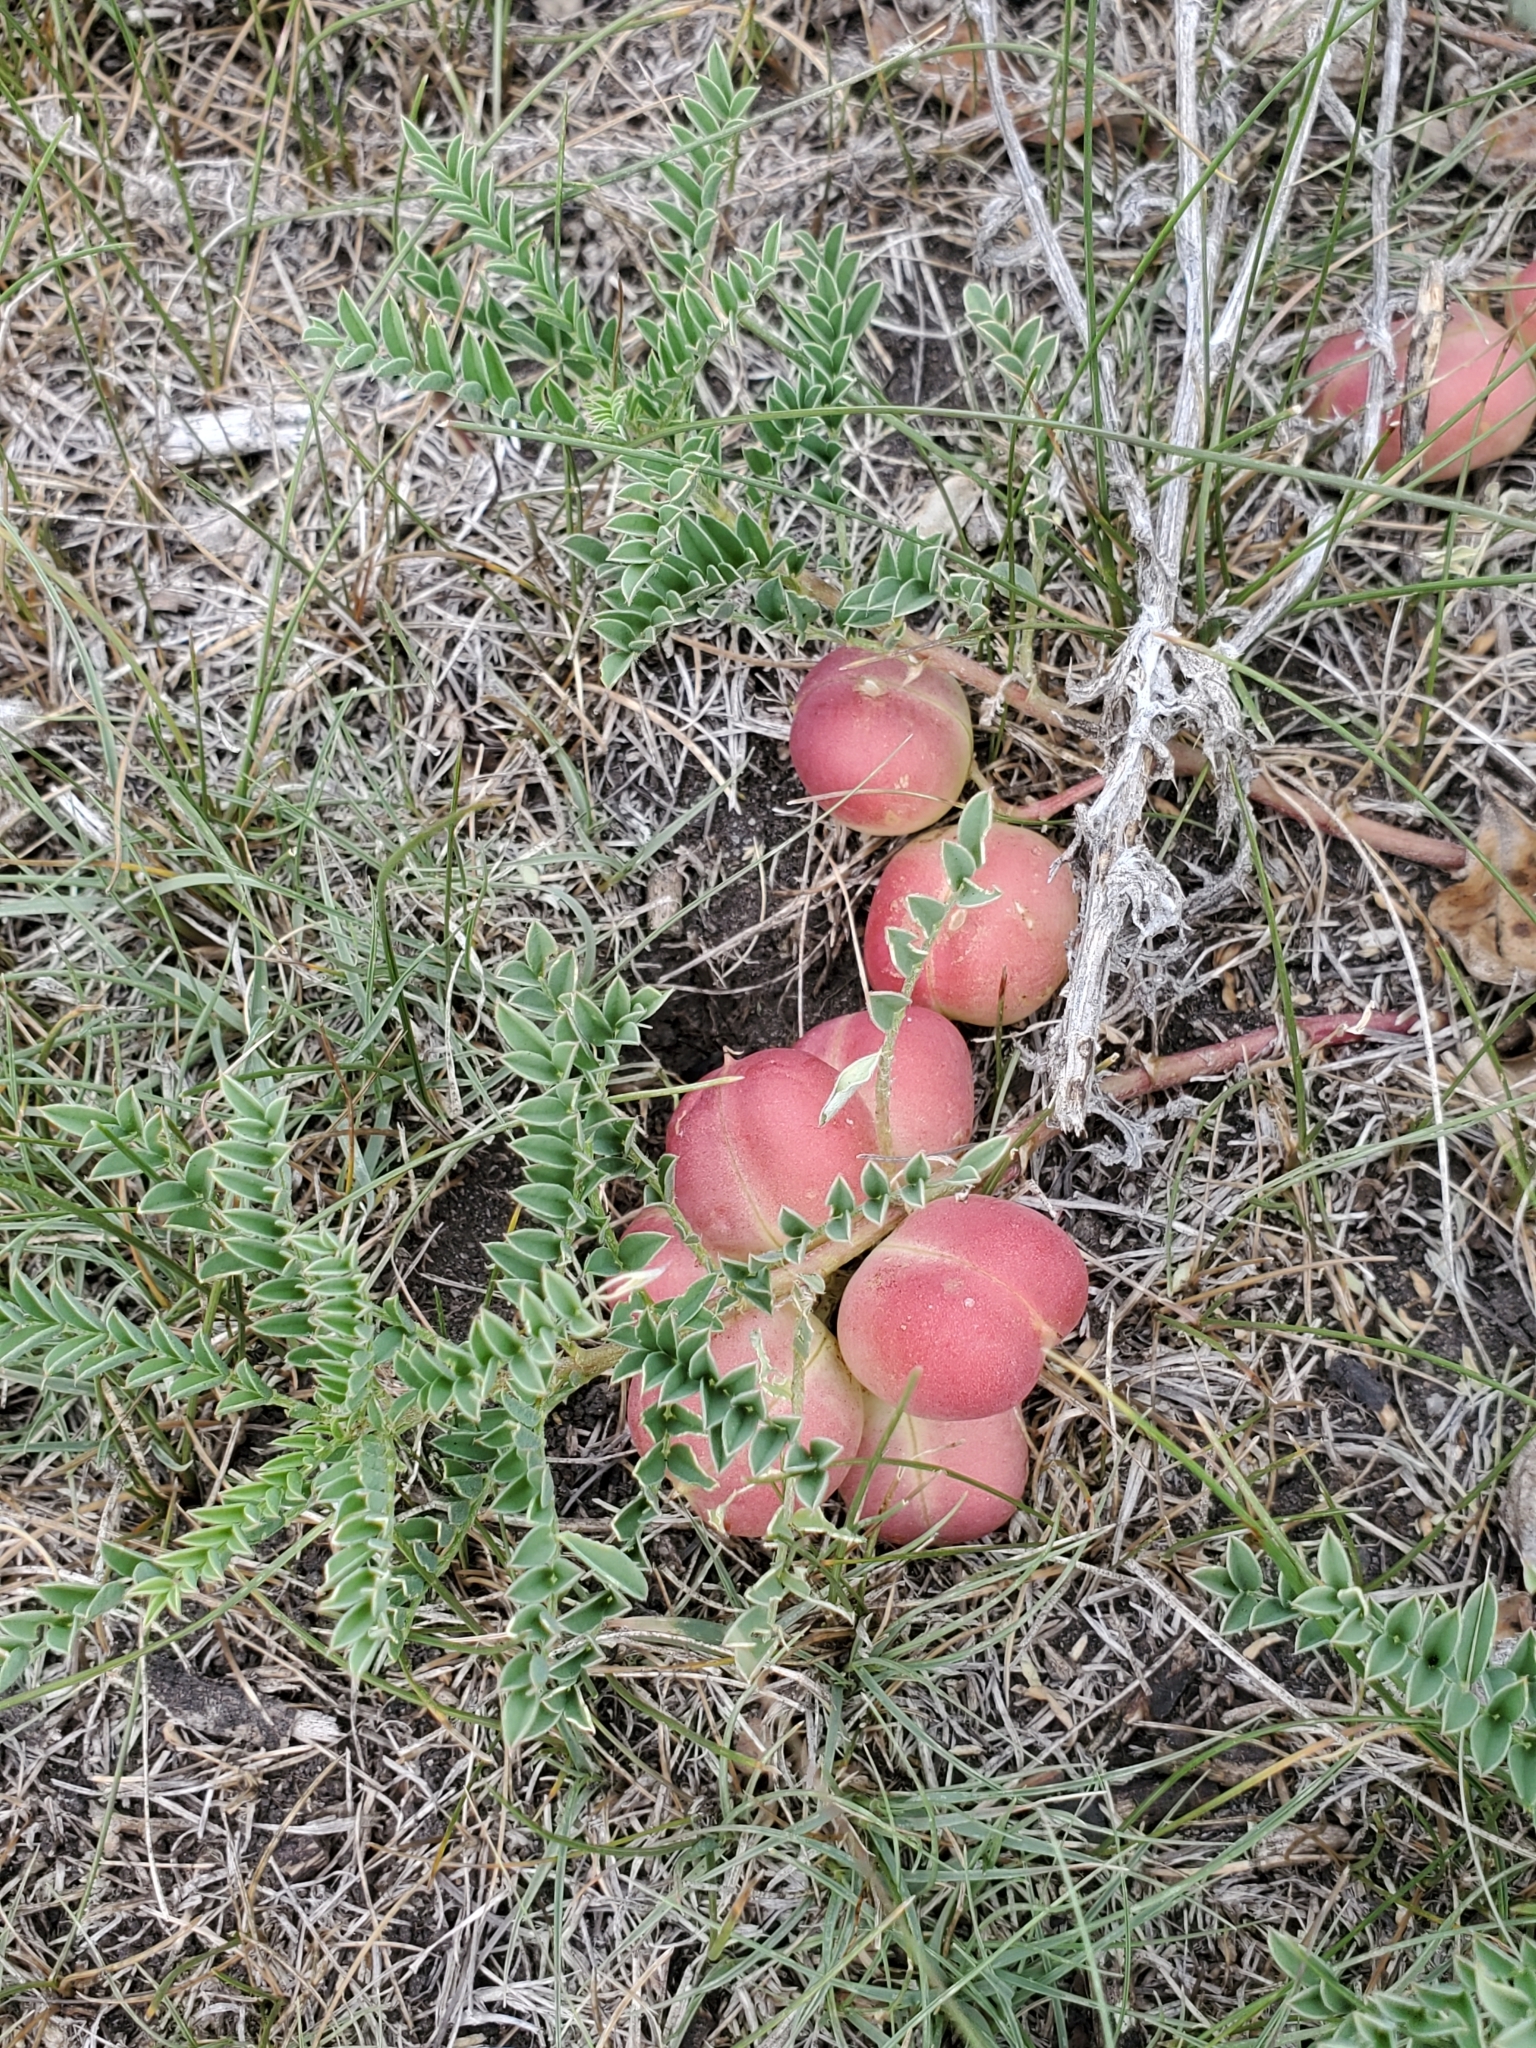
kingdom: Plantae
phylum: Tracheophyta
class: Magnoliopsida
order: Fabales
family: Fabaceae
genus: Astragalus
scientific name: Astragalus crassicarpus
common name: Ground-plum milk-vetch
